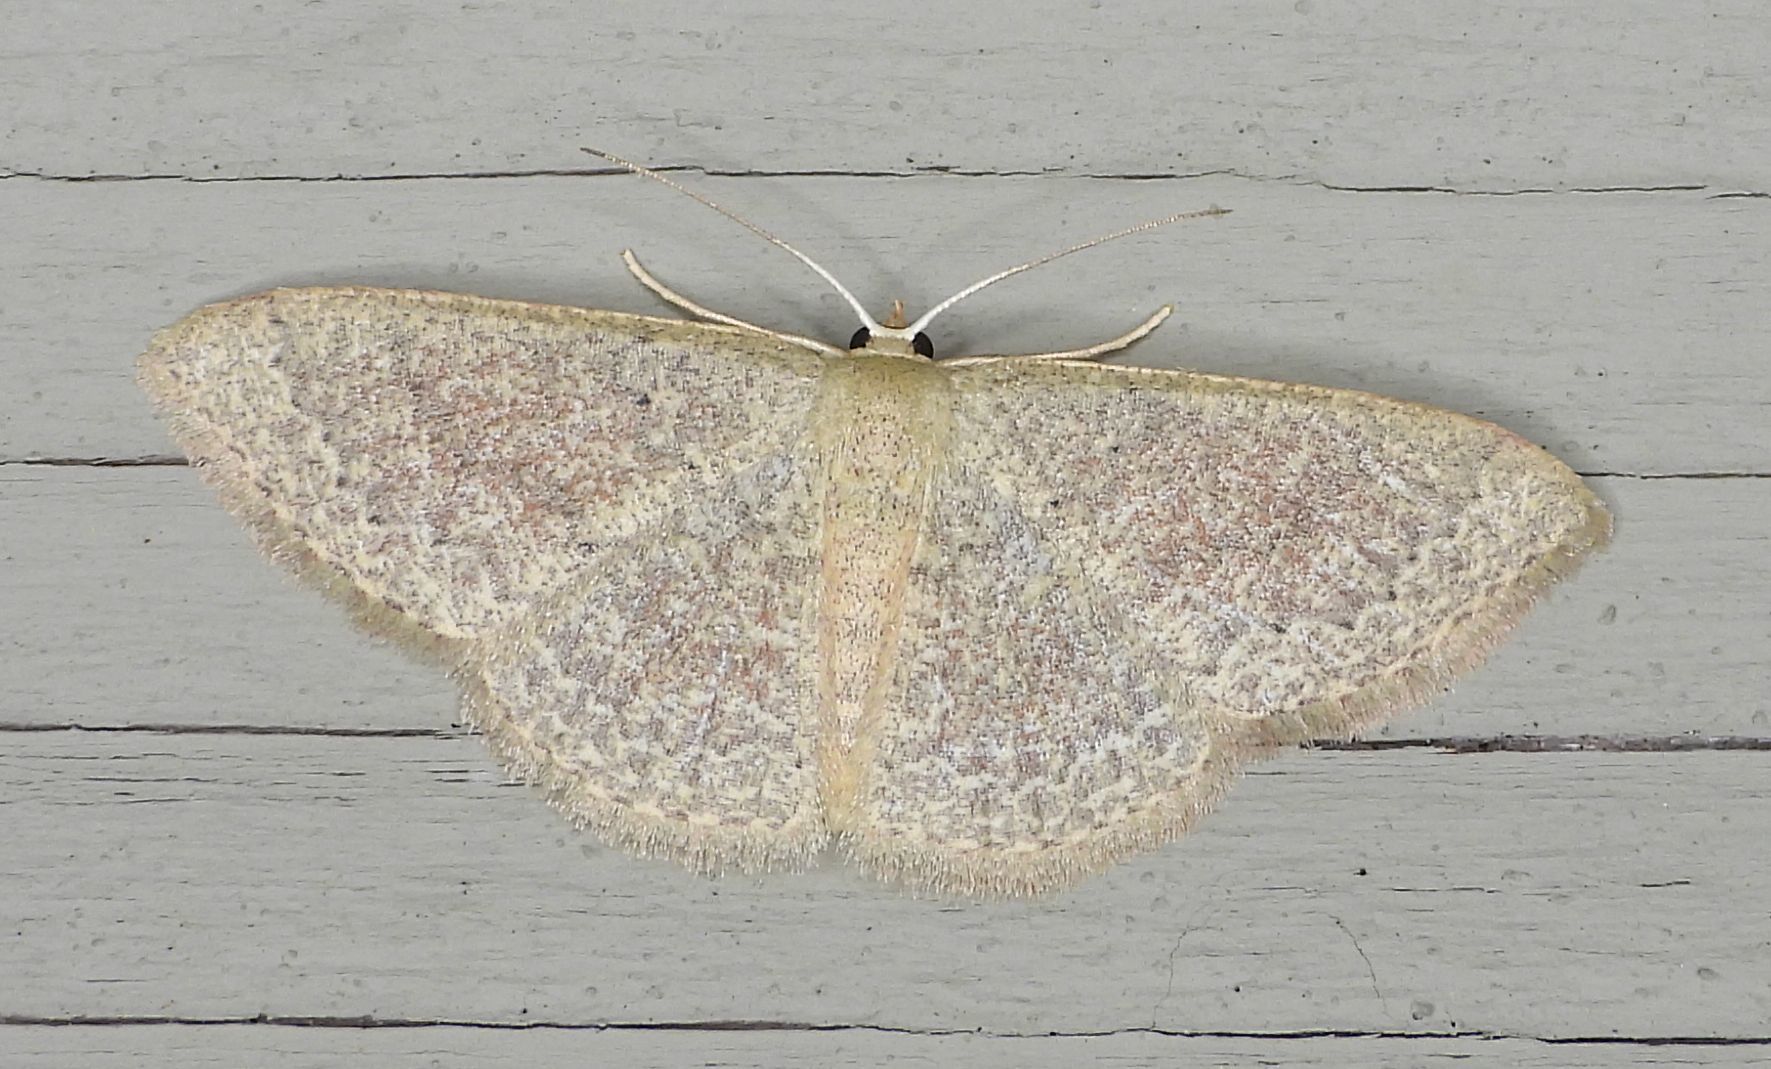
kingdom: Animalia
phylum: Arthropoda
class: Insecta
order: Lepidoptera
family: Geometridae
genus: Pleuroprucha
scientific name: Pleuroprucha insulsaria
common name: Common tan wave
